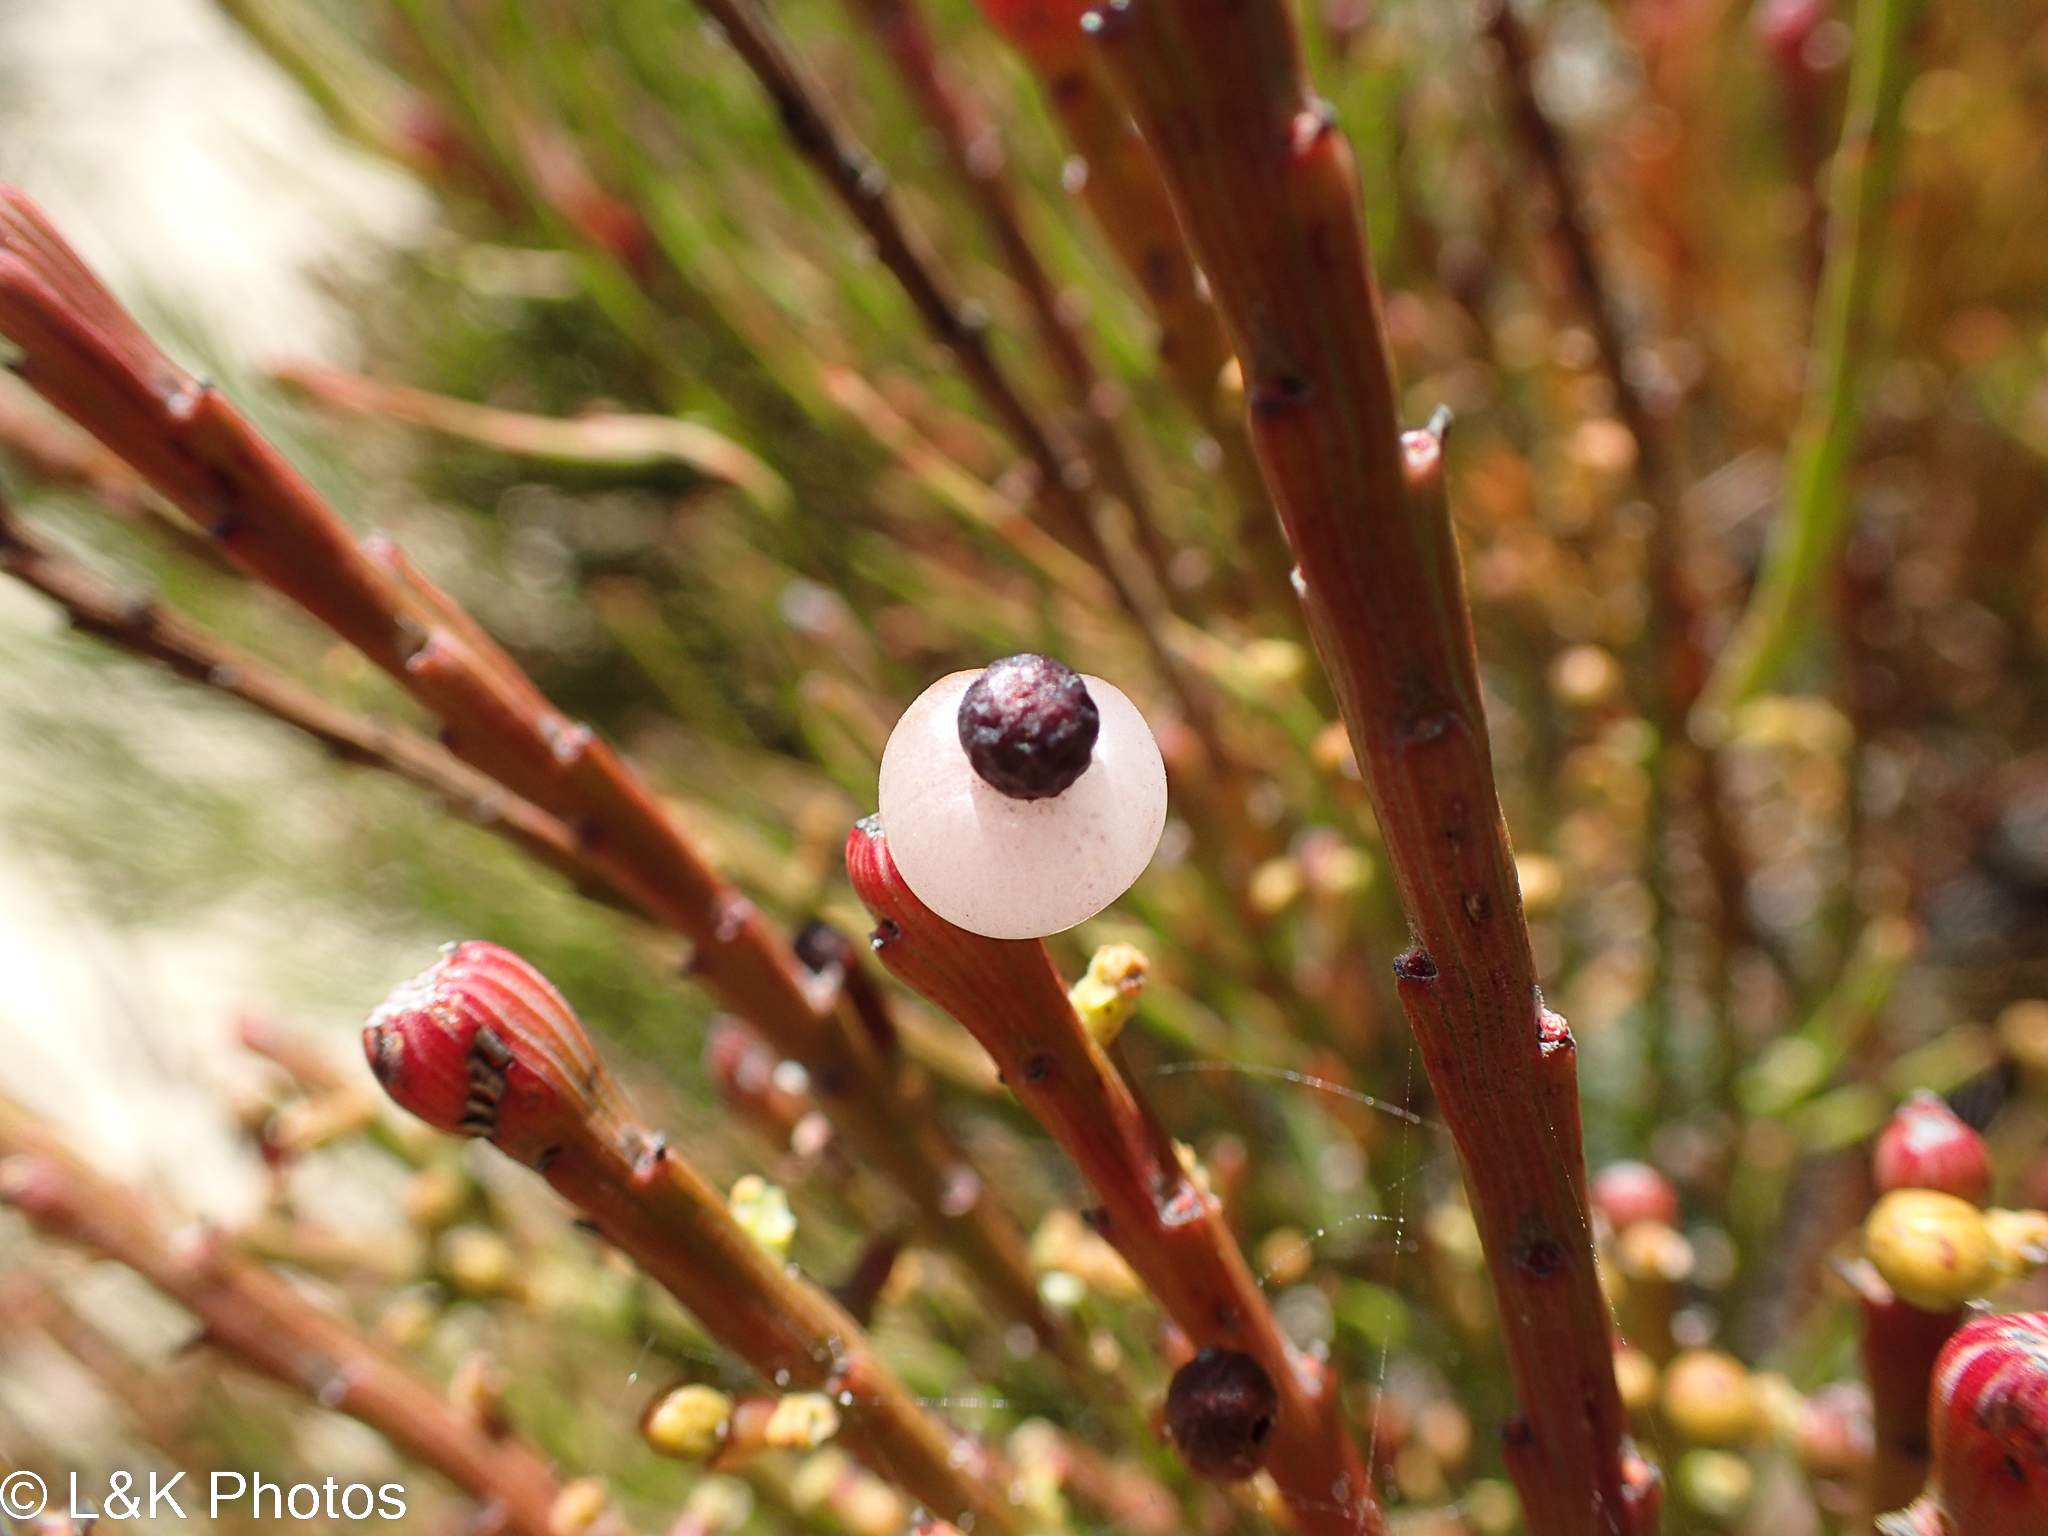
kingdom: Plantae
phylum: Tracheophyta
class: Magnoliopsida
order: Santalales
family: Santalaceae
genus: Exocarpos
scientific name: Exocarpos syrticola
